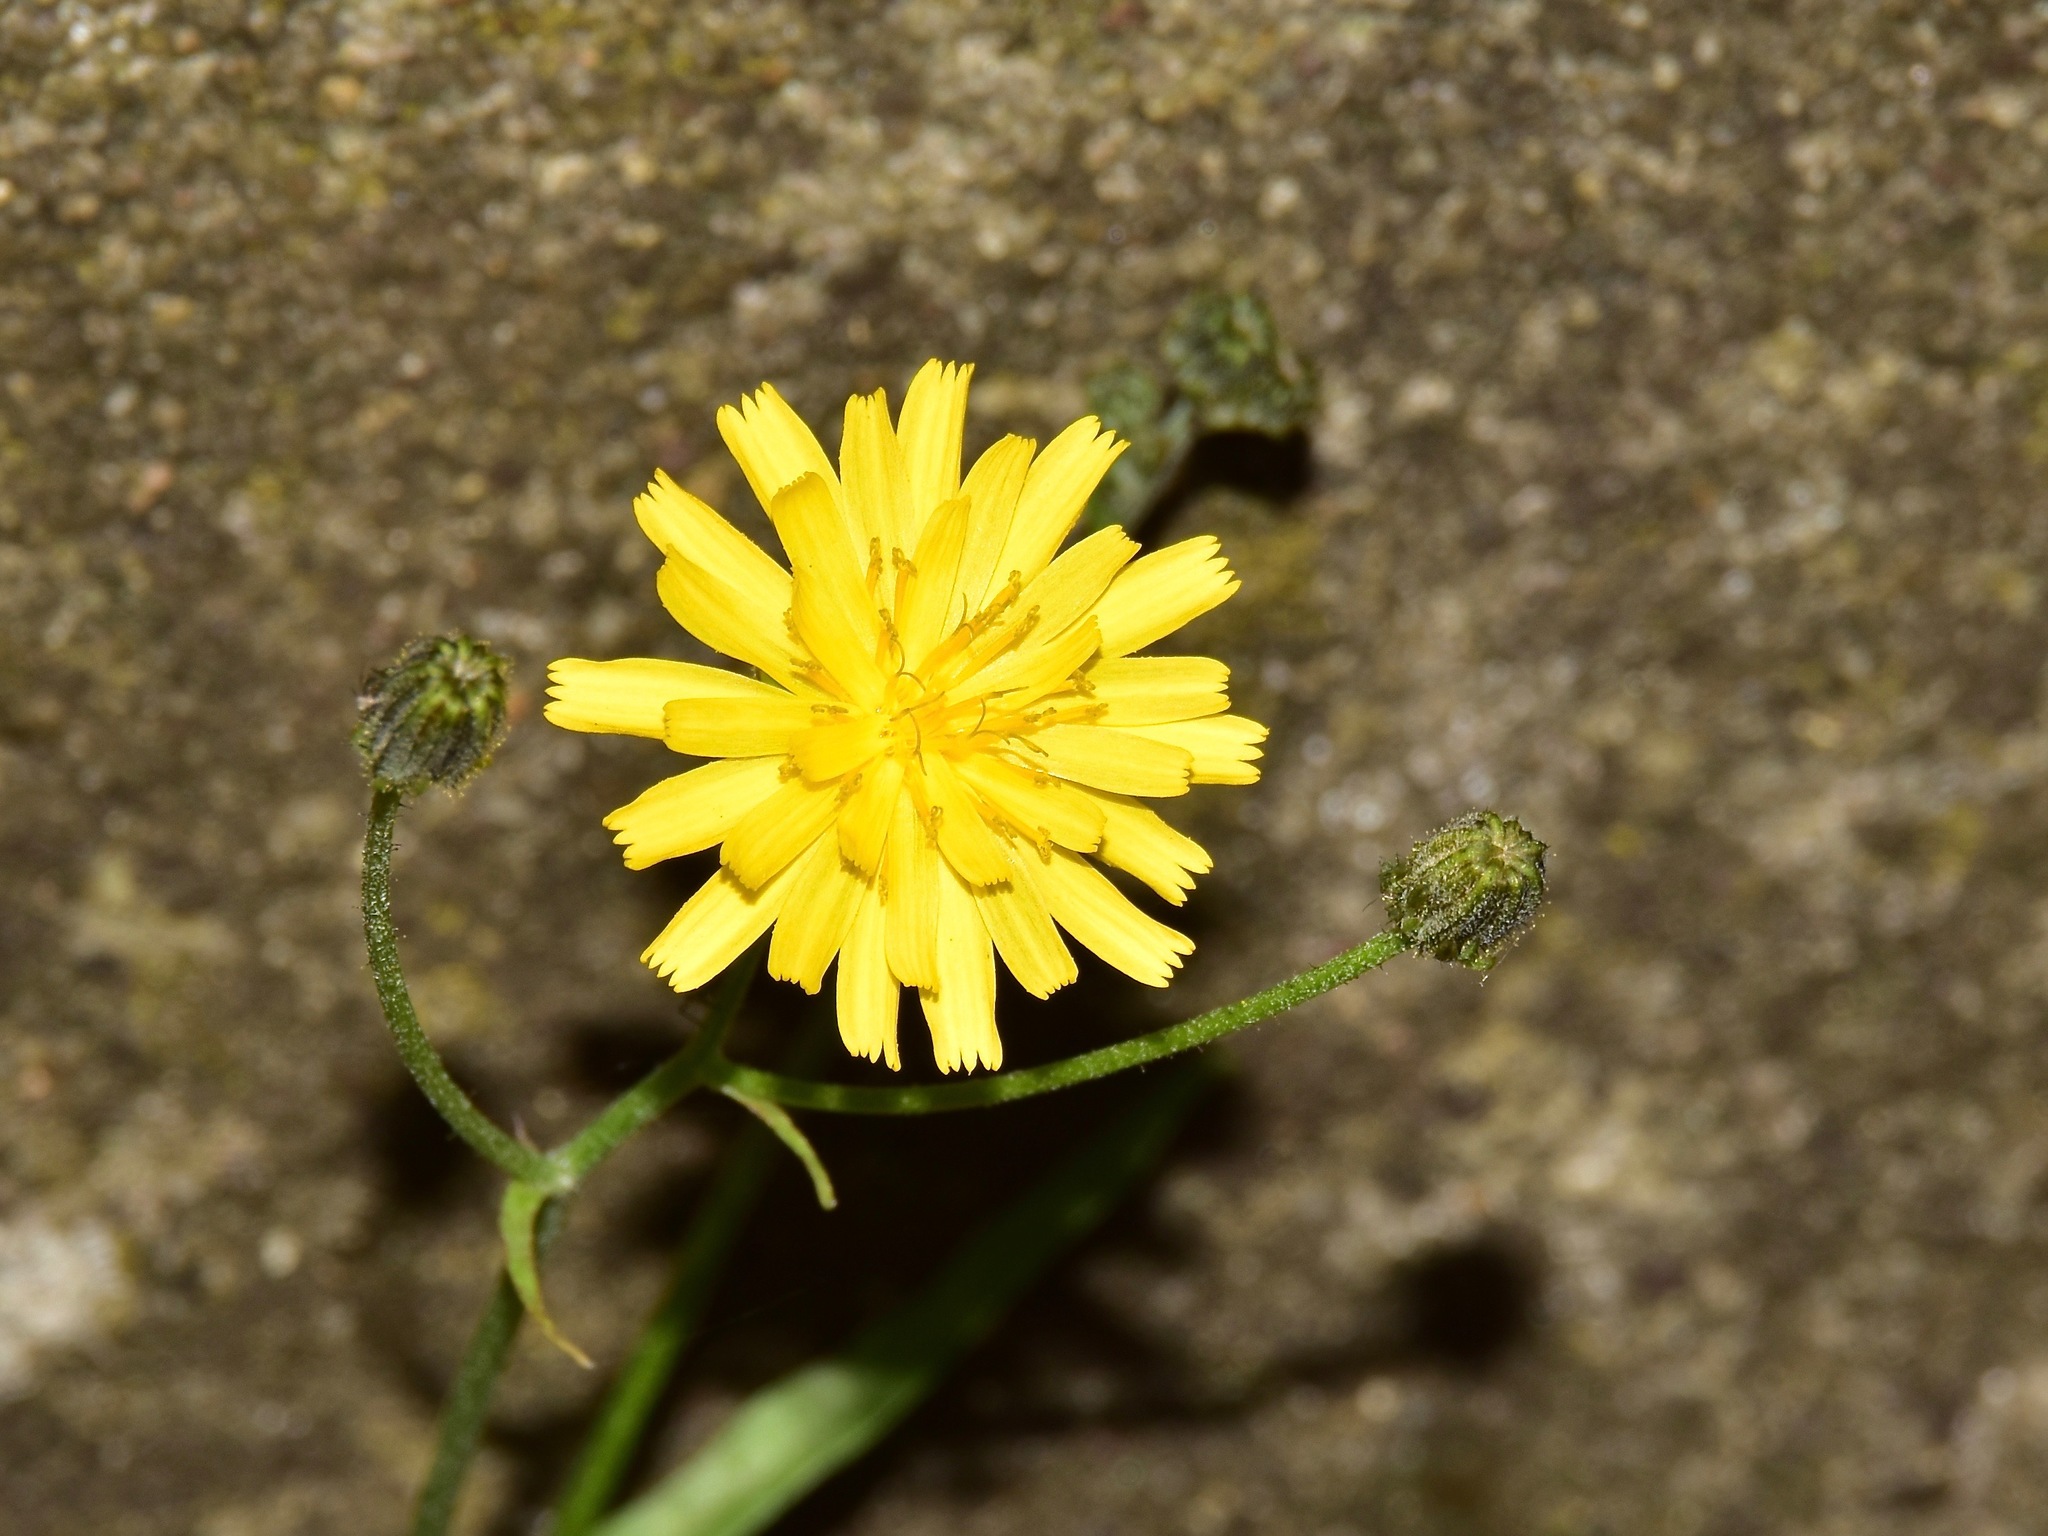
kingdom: Plantae
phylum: Tracheophyta
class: Magnoliopsida
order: Asterales
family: Asteraceae
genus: Crepis
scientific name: Crepis capillaris
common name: Smooth hawksbeard
